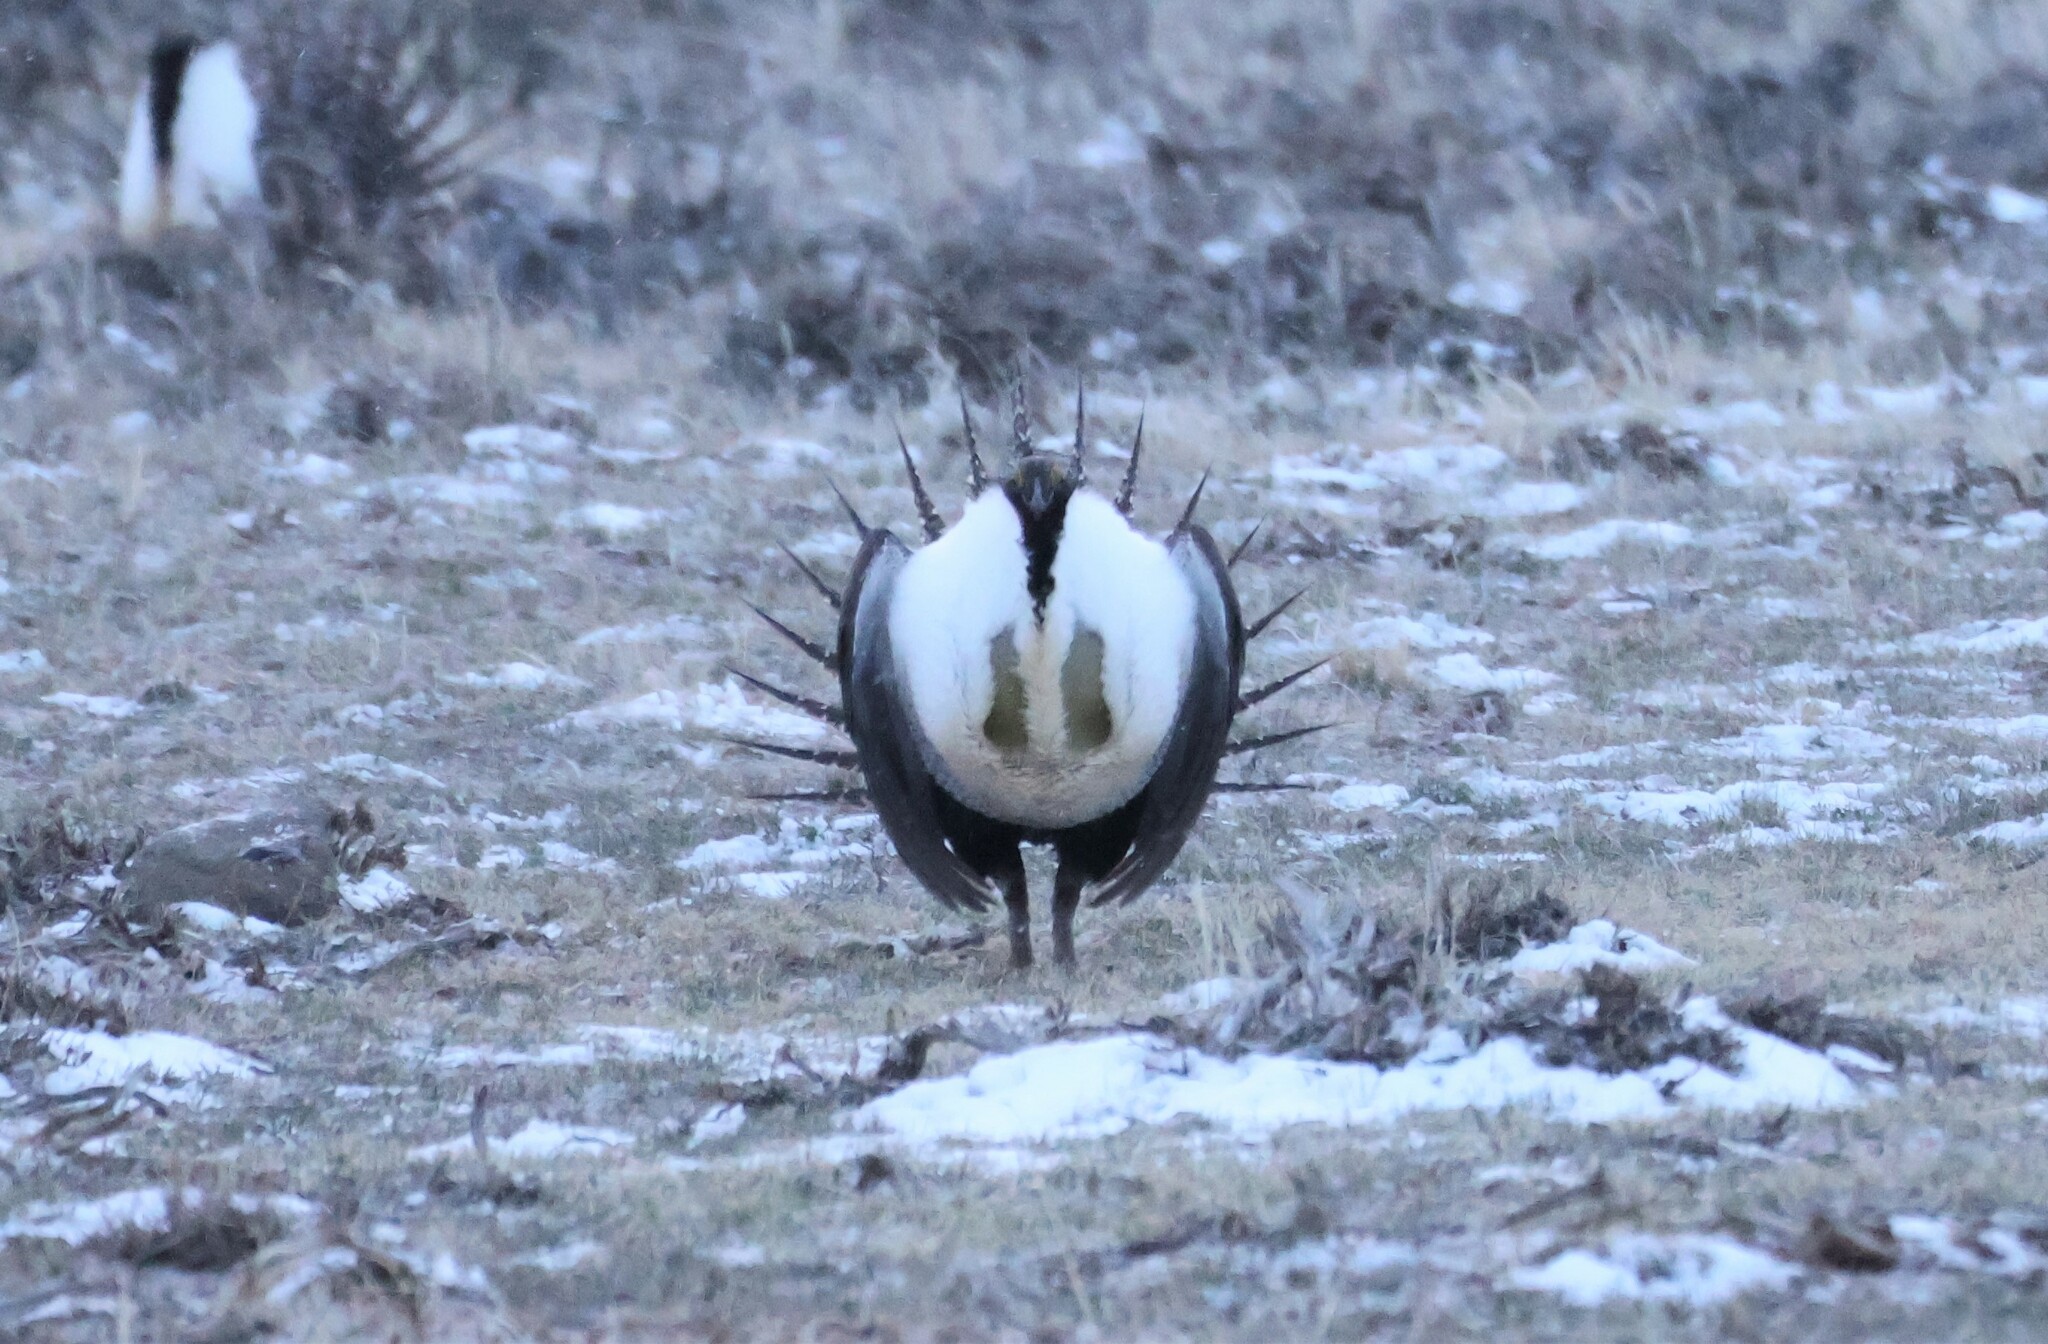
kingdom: Animalia
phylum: Chordata
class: Aves
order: Galliformes
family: Phasianidae
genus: Centrocercus
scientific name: Centrocercus urophasianus
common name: Sage grouse
